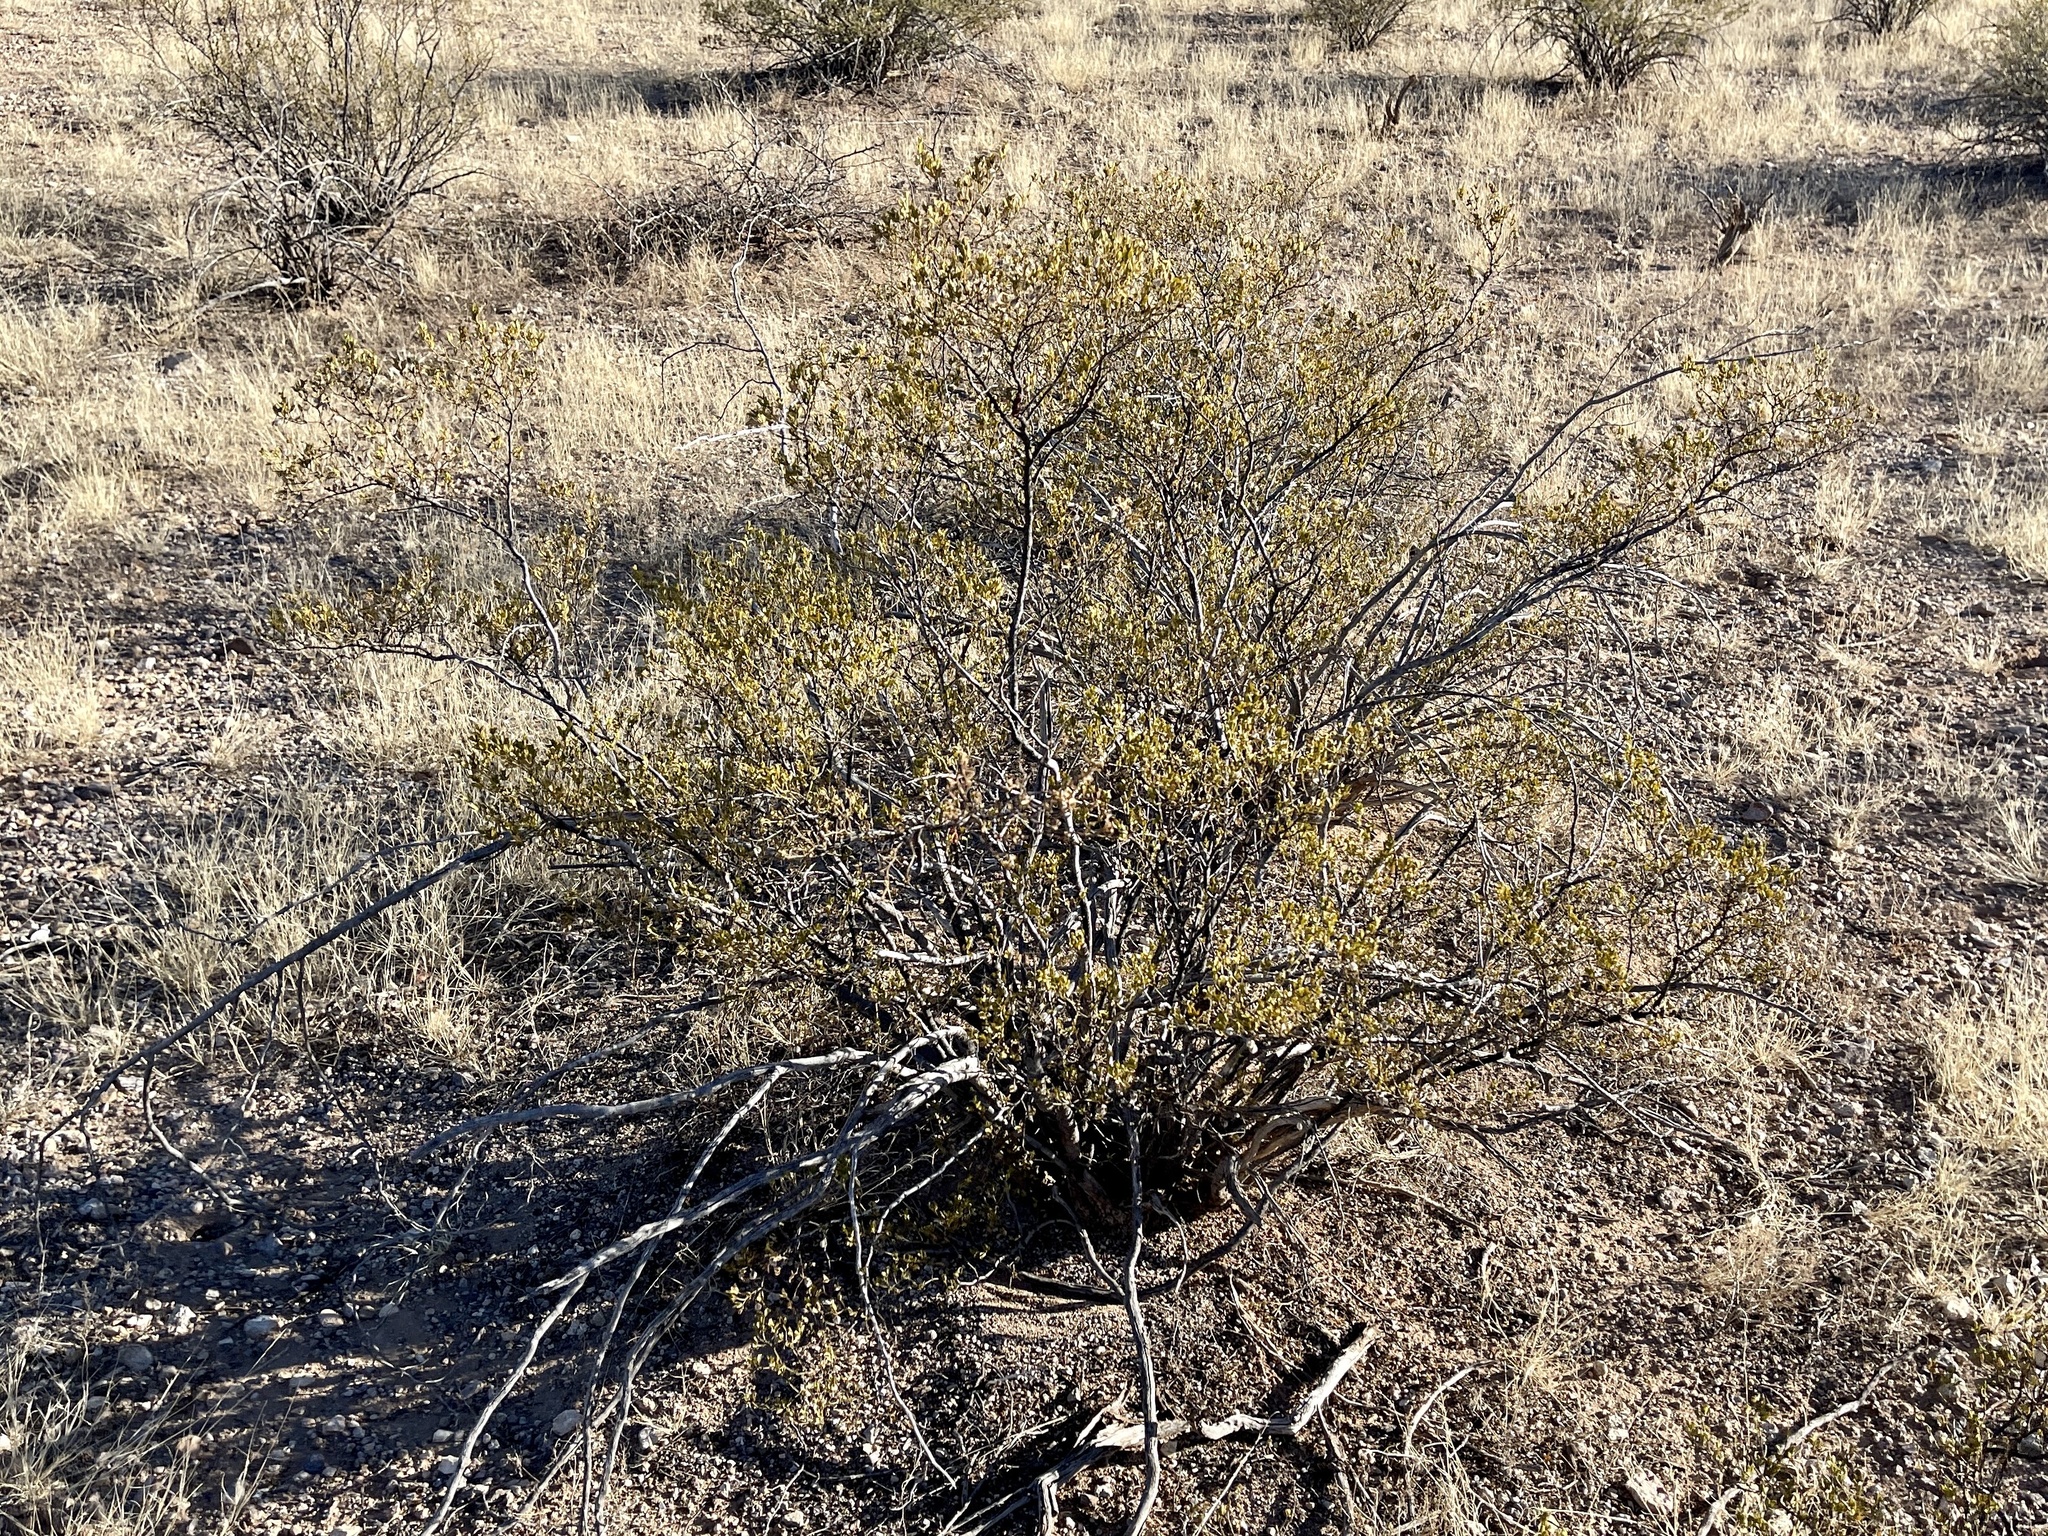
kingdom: Plantae
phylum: Tracheophyta
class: Magnoliopsida
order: Zygophyllales
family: Zygophyllaceae
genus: Larrea
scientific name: Larrea tridentata
